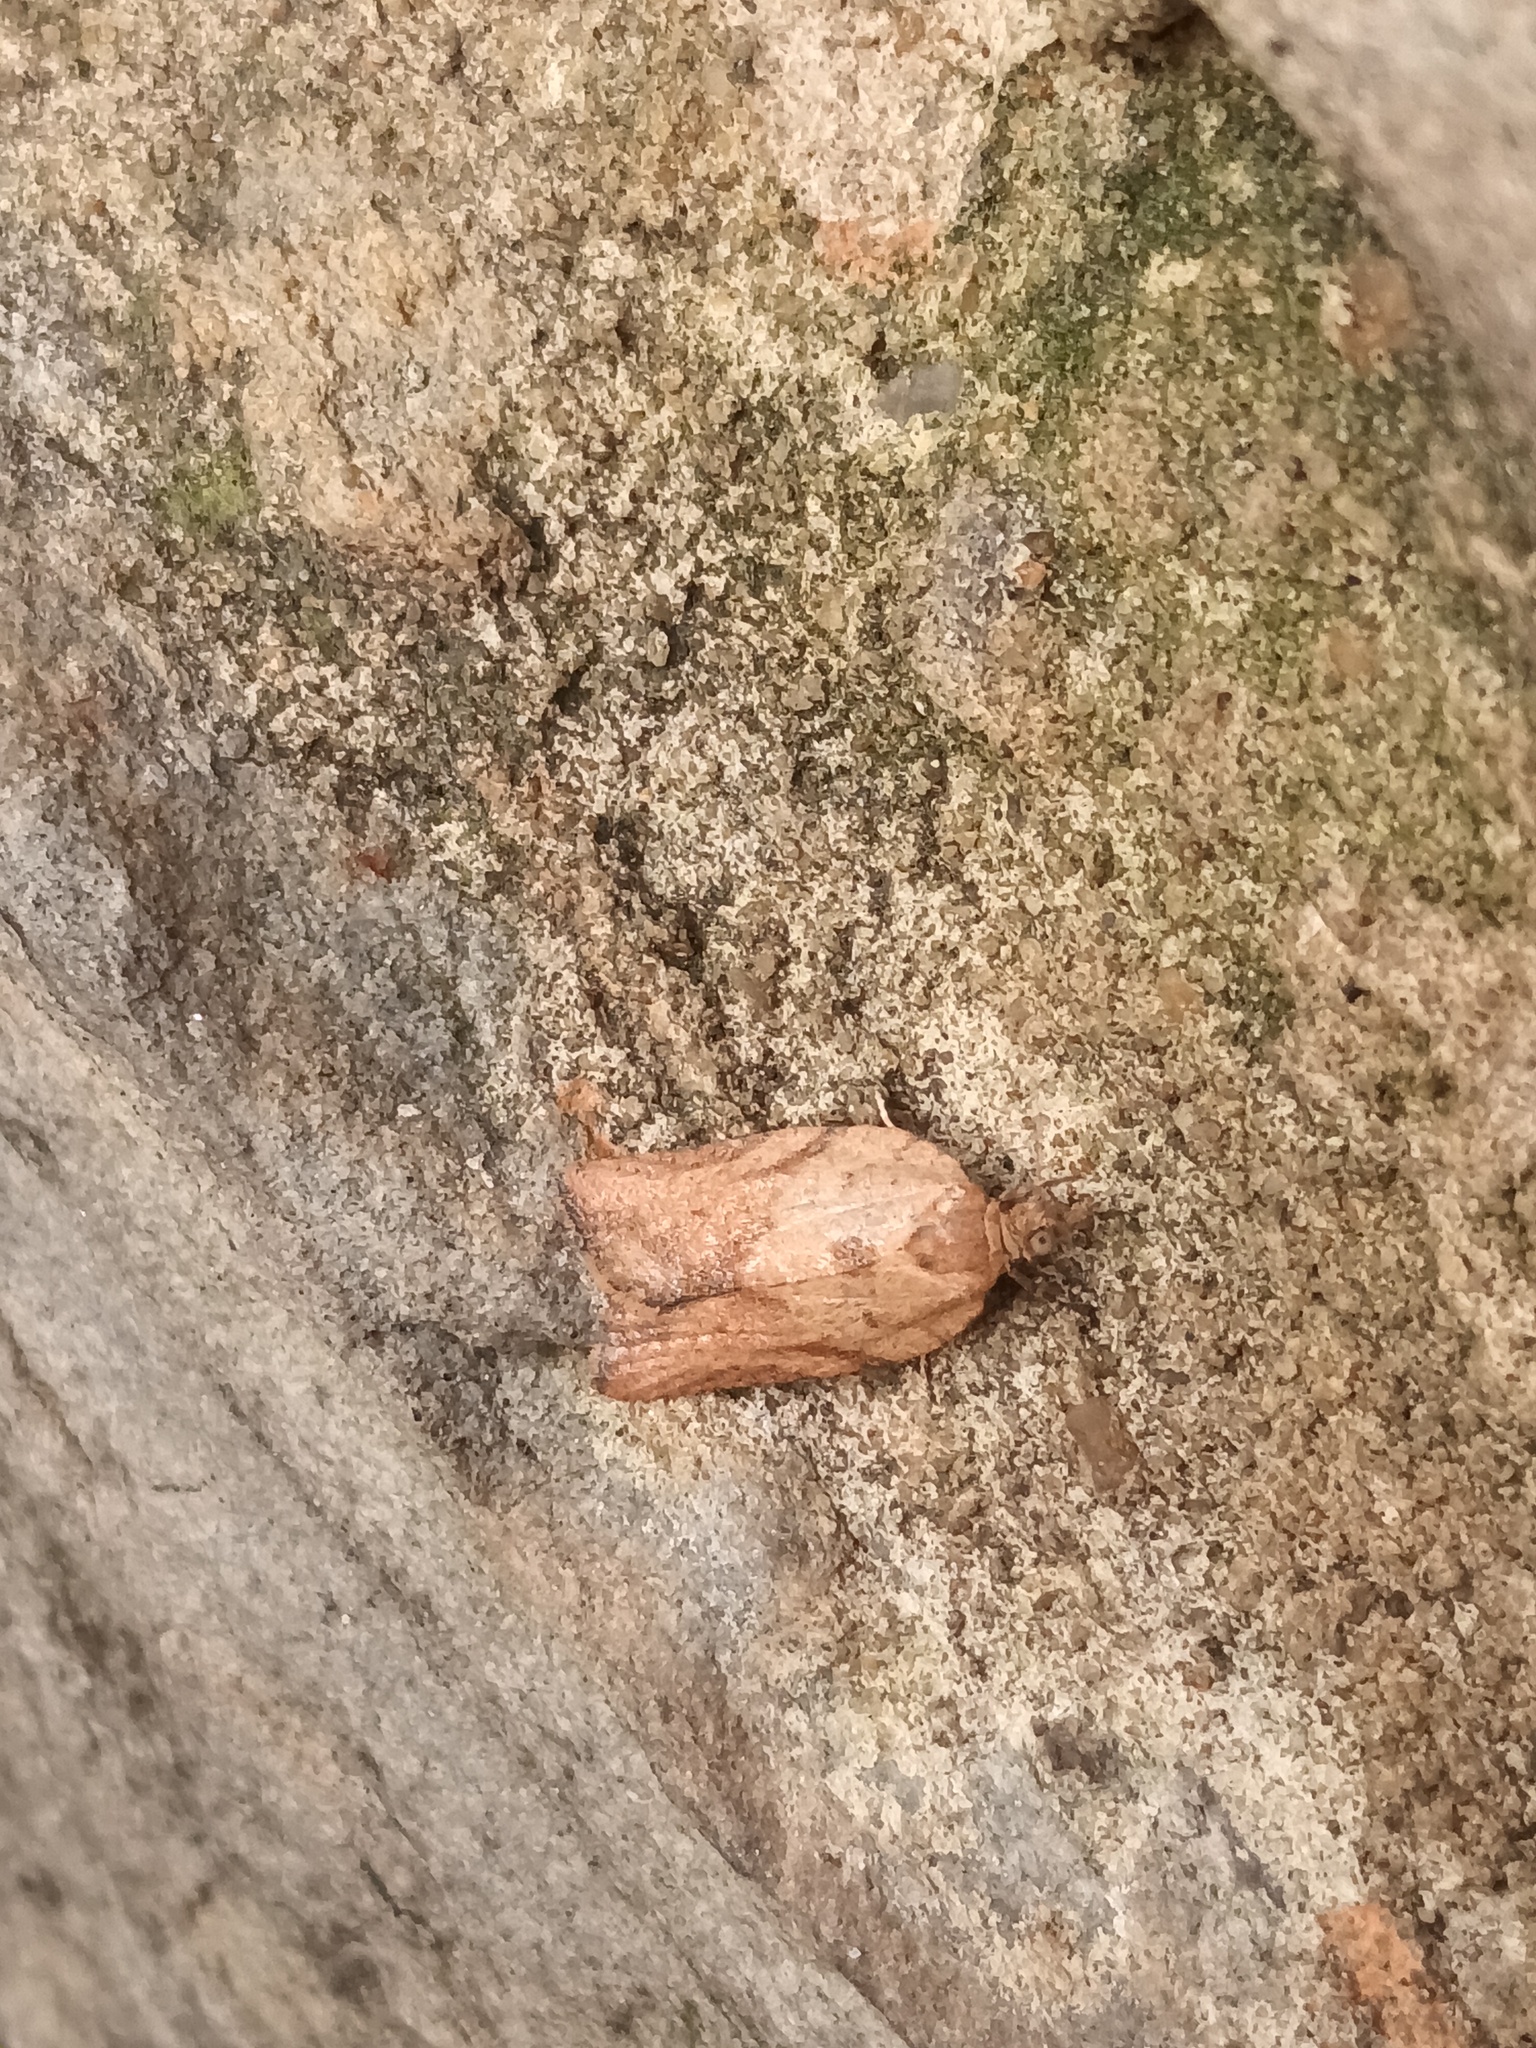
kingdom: Animalia
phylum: Arthropoda
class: Insecta
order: Lepidoptera
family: Tortricidae
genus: Epiphyas
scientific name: Epiphyas postvittana
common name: Light brown apple moth
